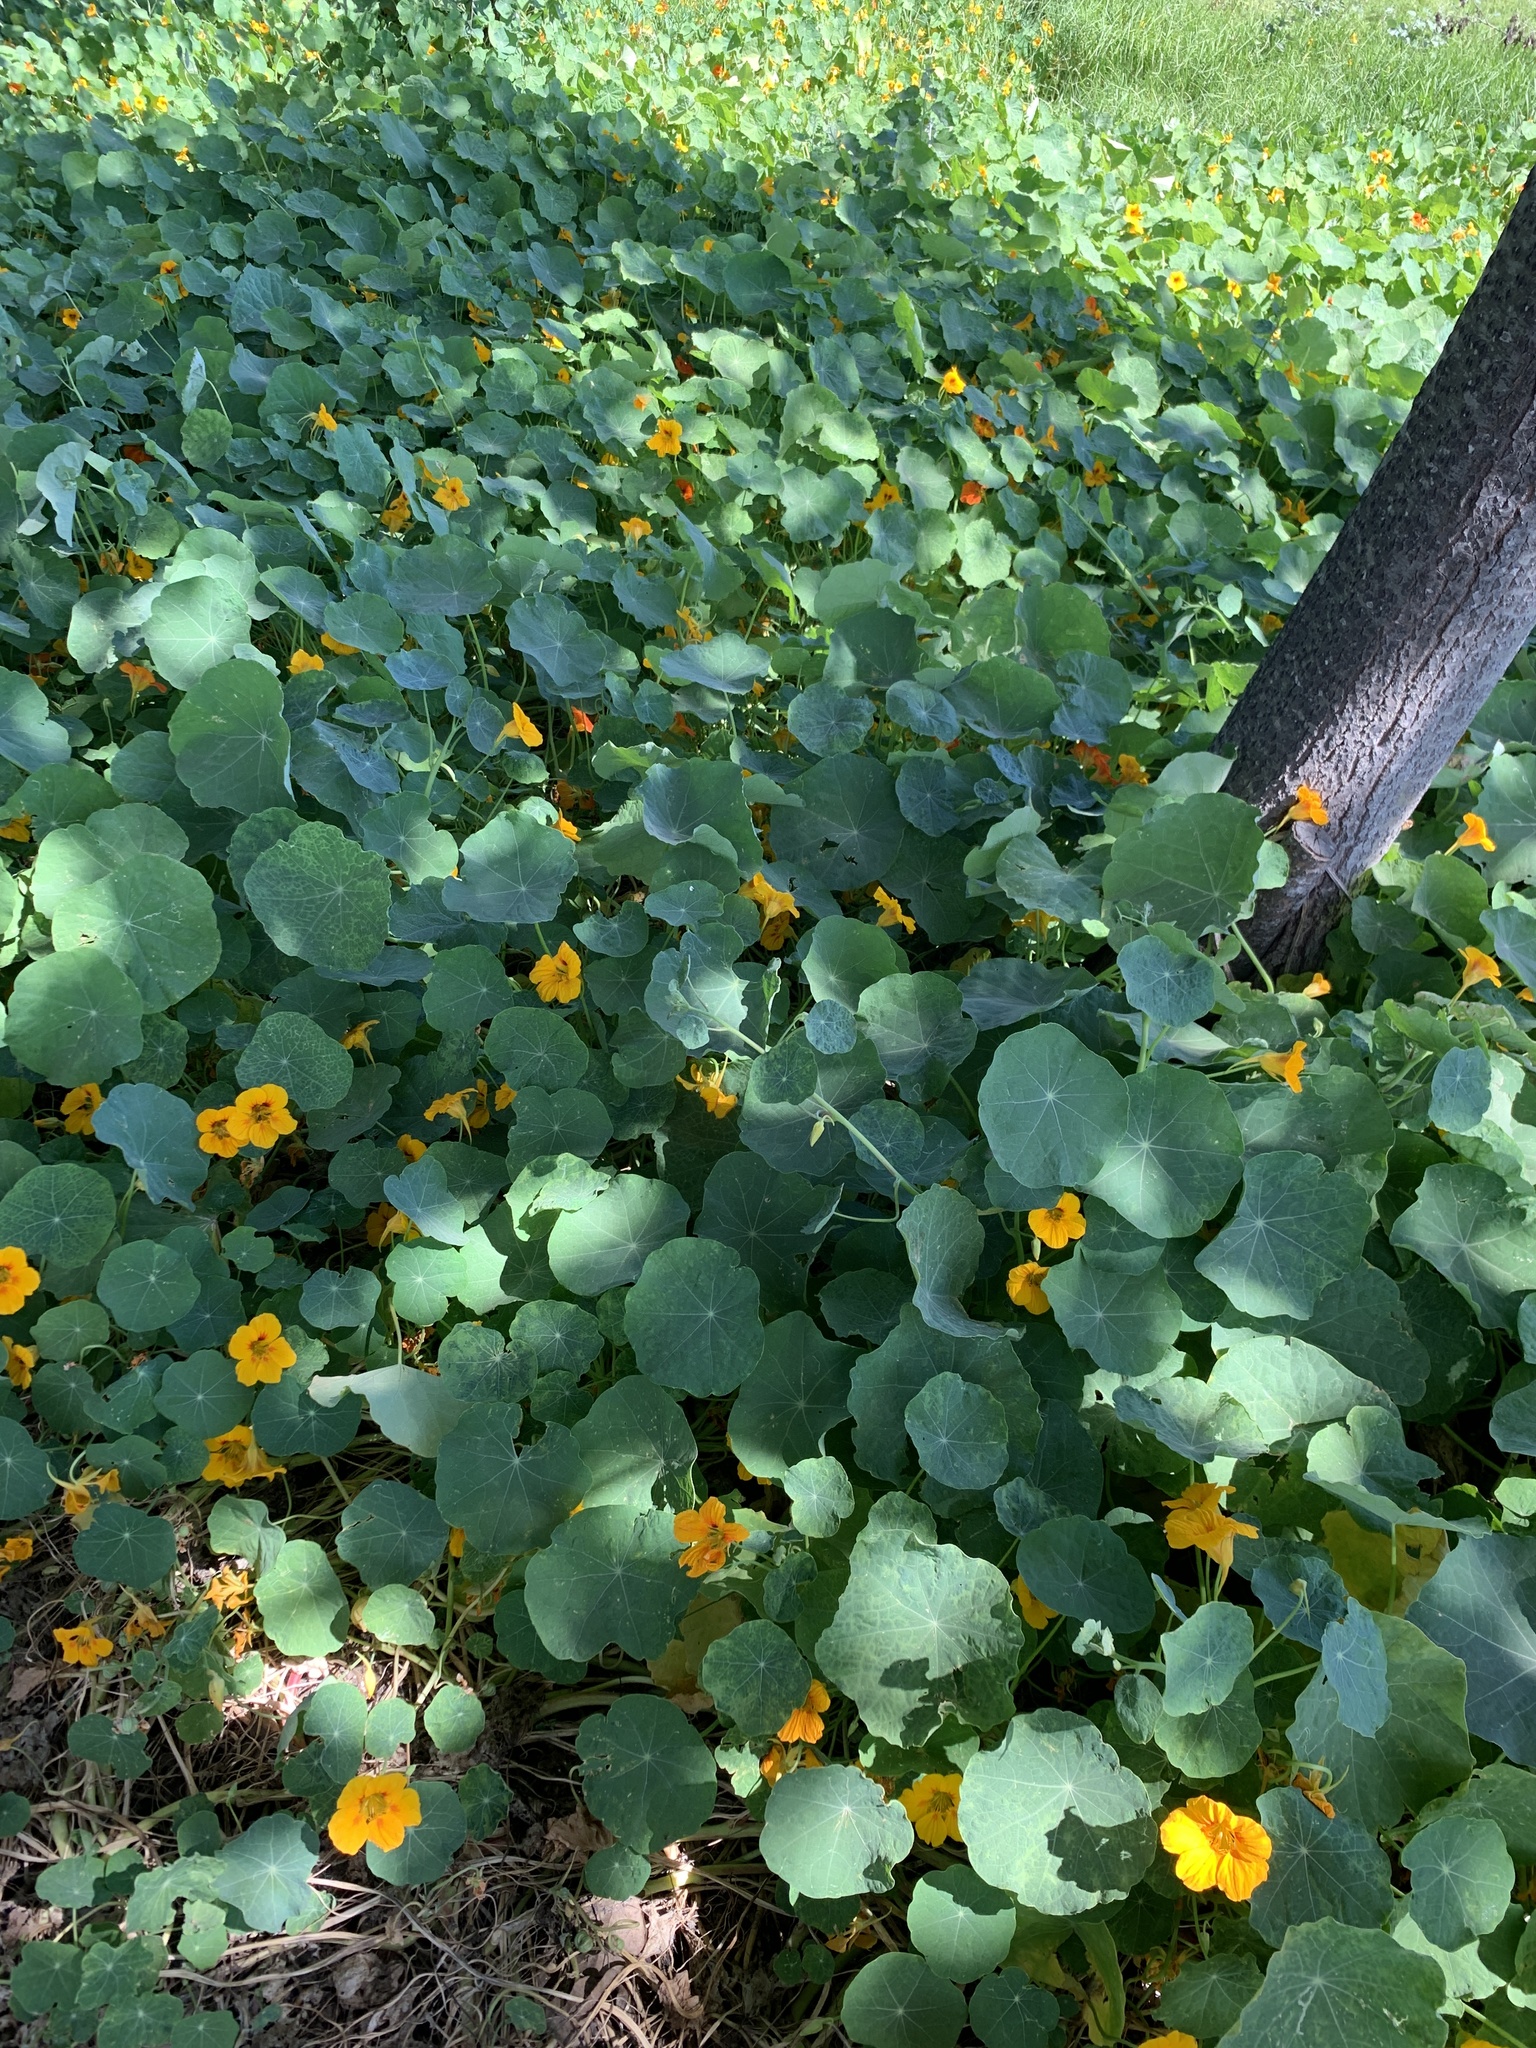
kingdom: Plantae
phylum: Tracheophyta
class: Magnoliopsida
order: Brassicales
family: Tropaeolaceae
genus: Tropaeolum
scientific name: Tropaeolum majus
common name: Nasturtium
